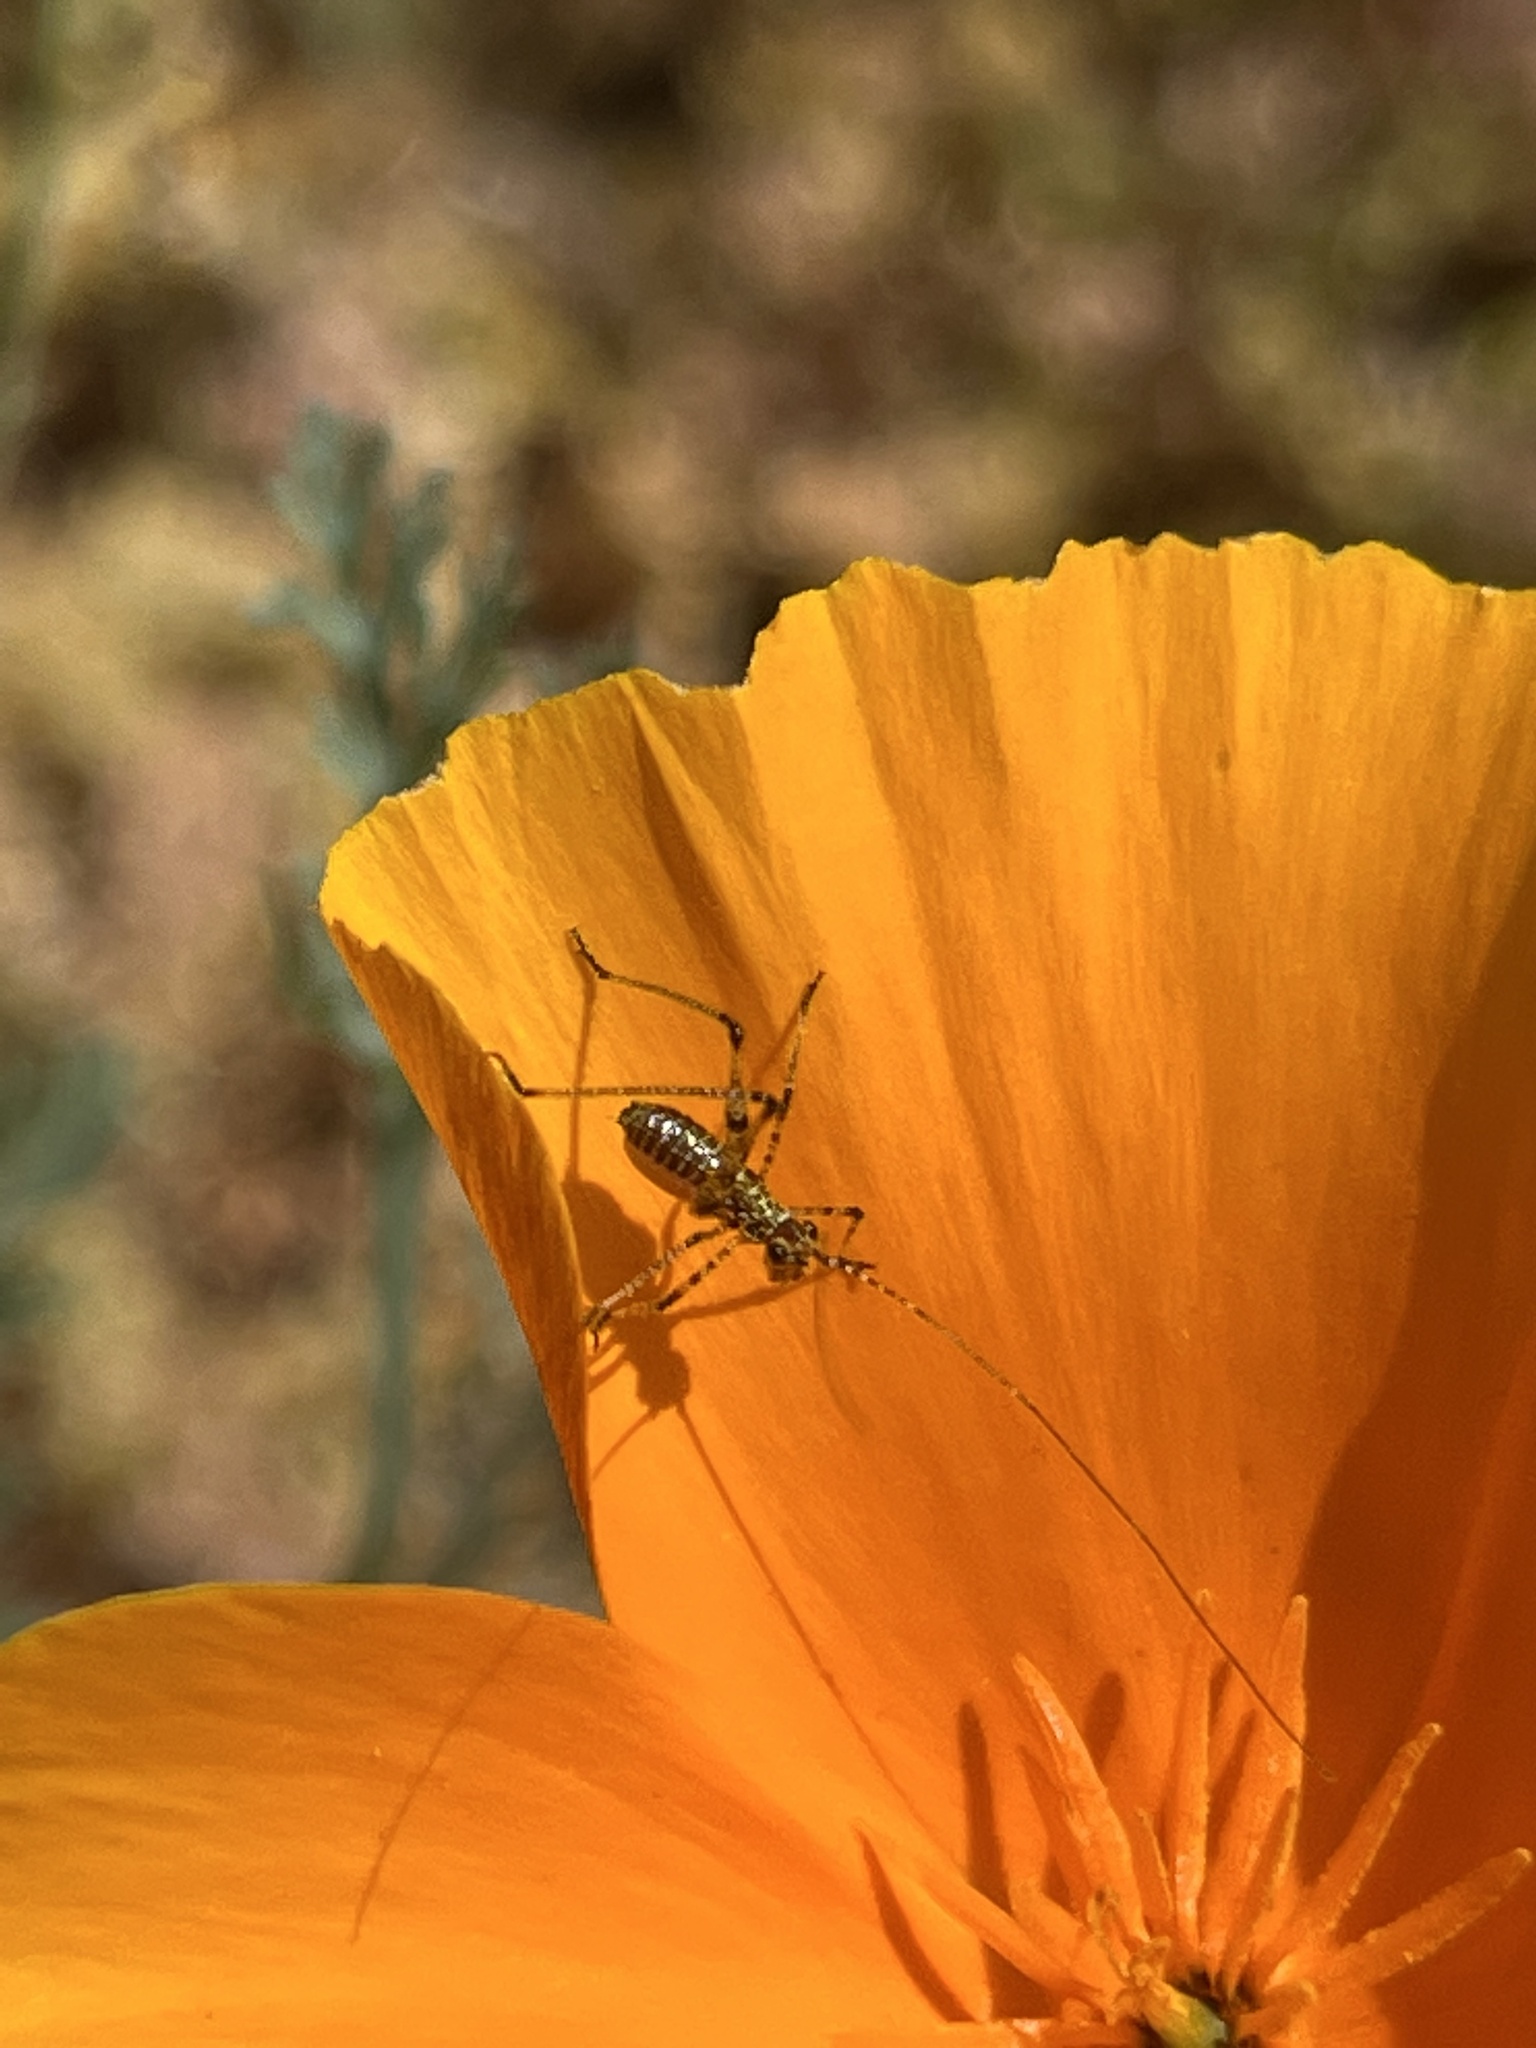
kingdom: Animalia
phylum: Arthropoda
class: Insecta
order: Orthoptera
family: Tettigoniidae
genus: Phaneroptera
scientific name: Phaneroptera nana
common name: Southern sickle bush-cricket
